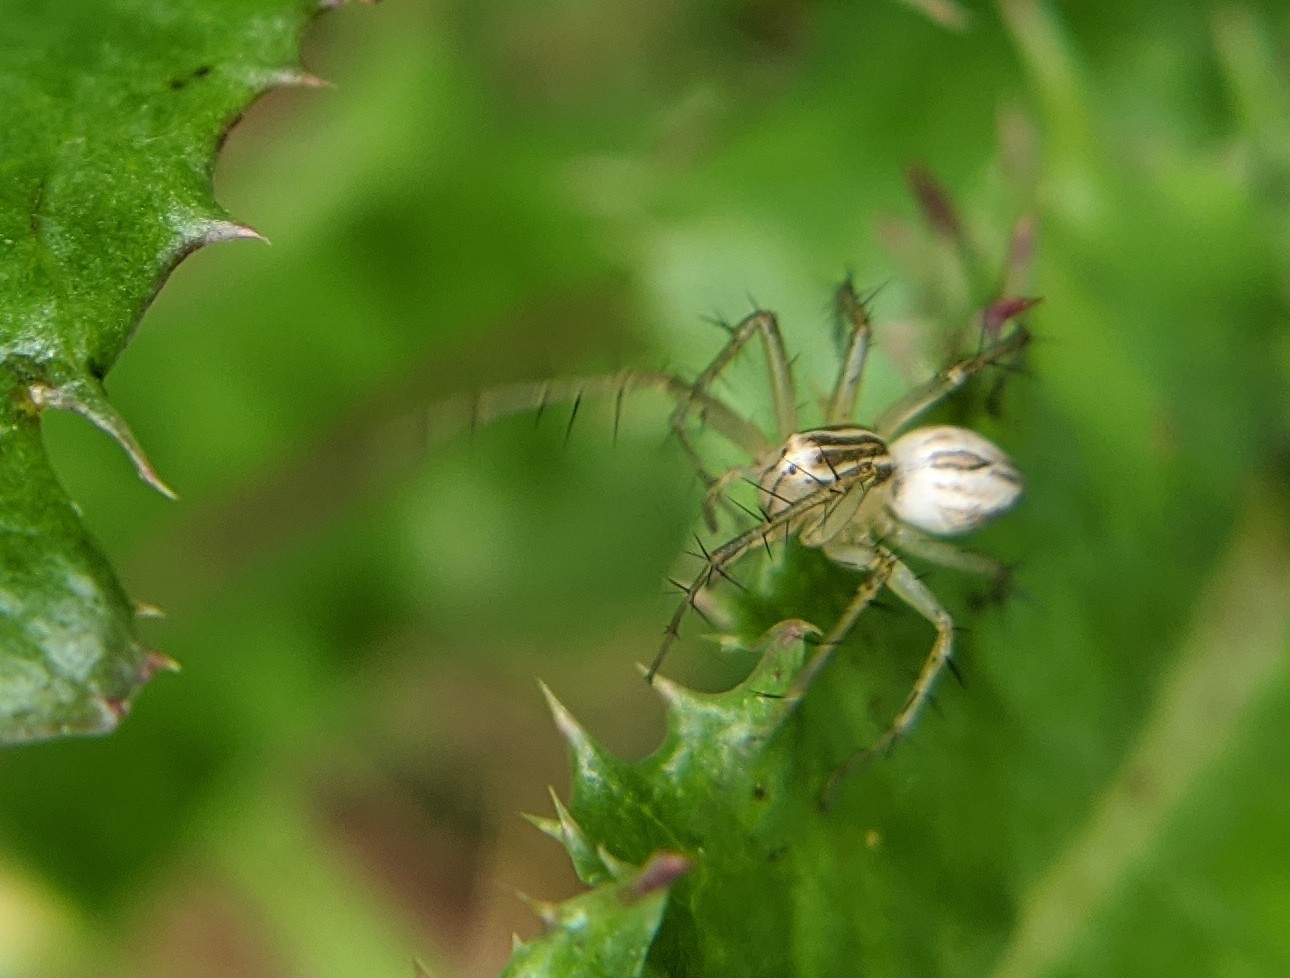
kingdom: Animalia
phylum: Arthropoda
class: Arachnida
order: Araneae
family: Oxyopidae
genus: Oxyopes
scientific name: Oxyopes salticus
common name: Lynx spiders
